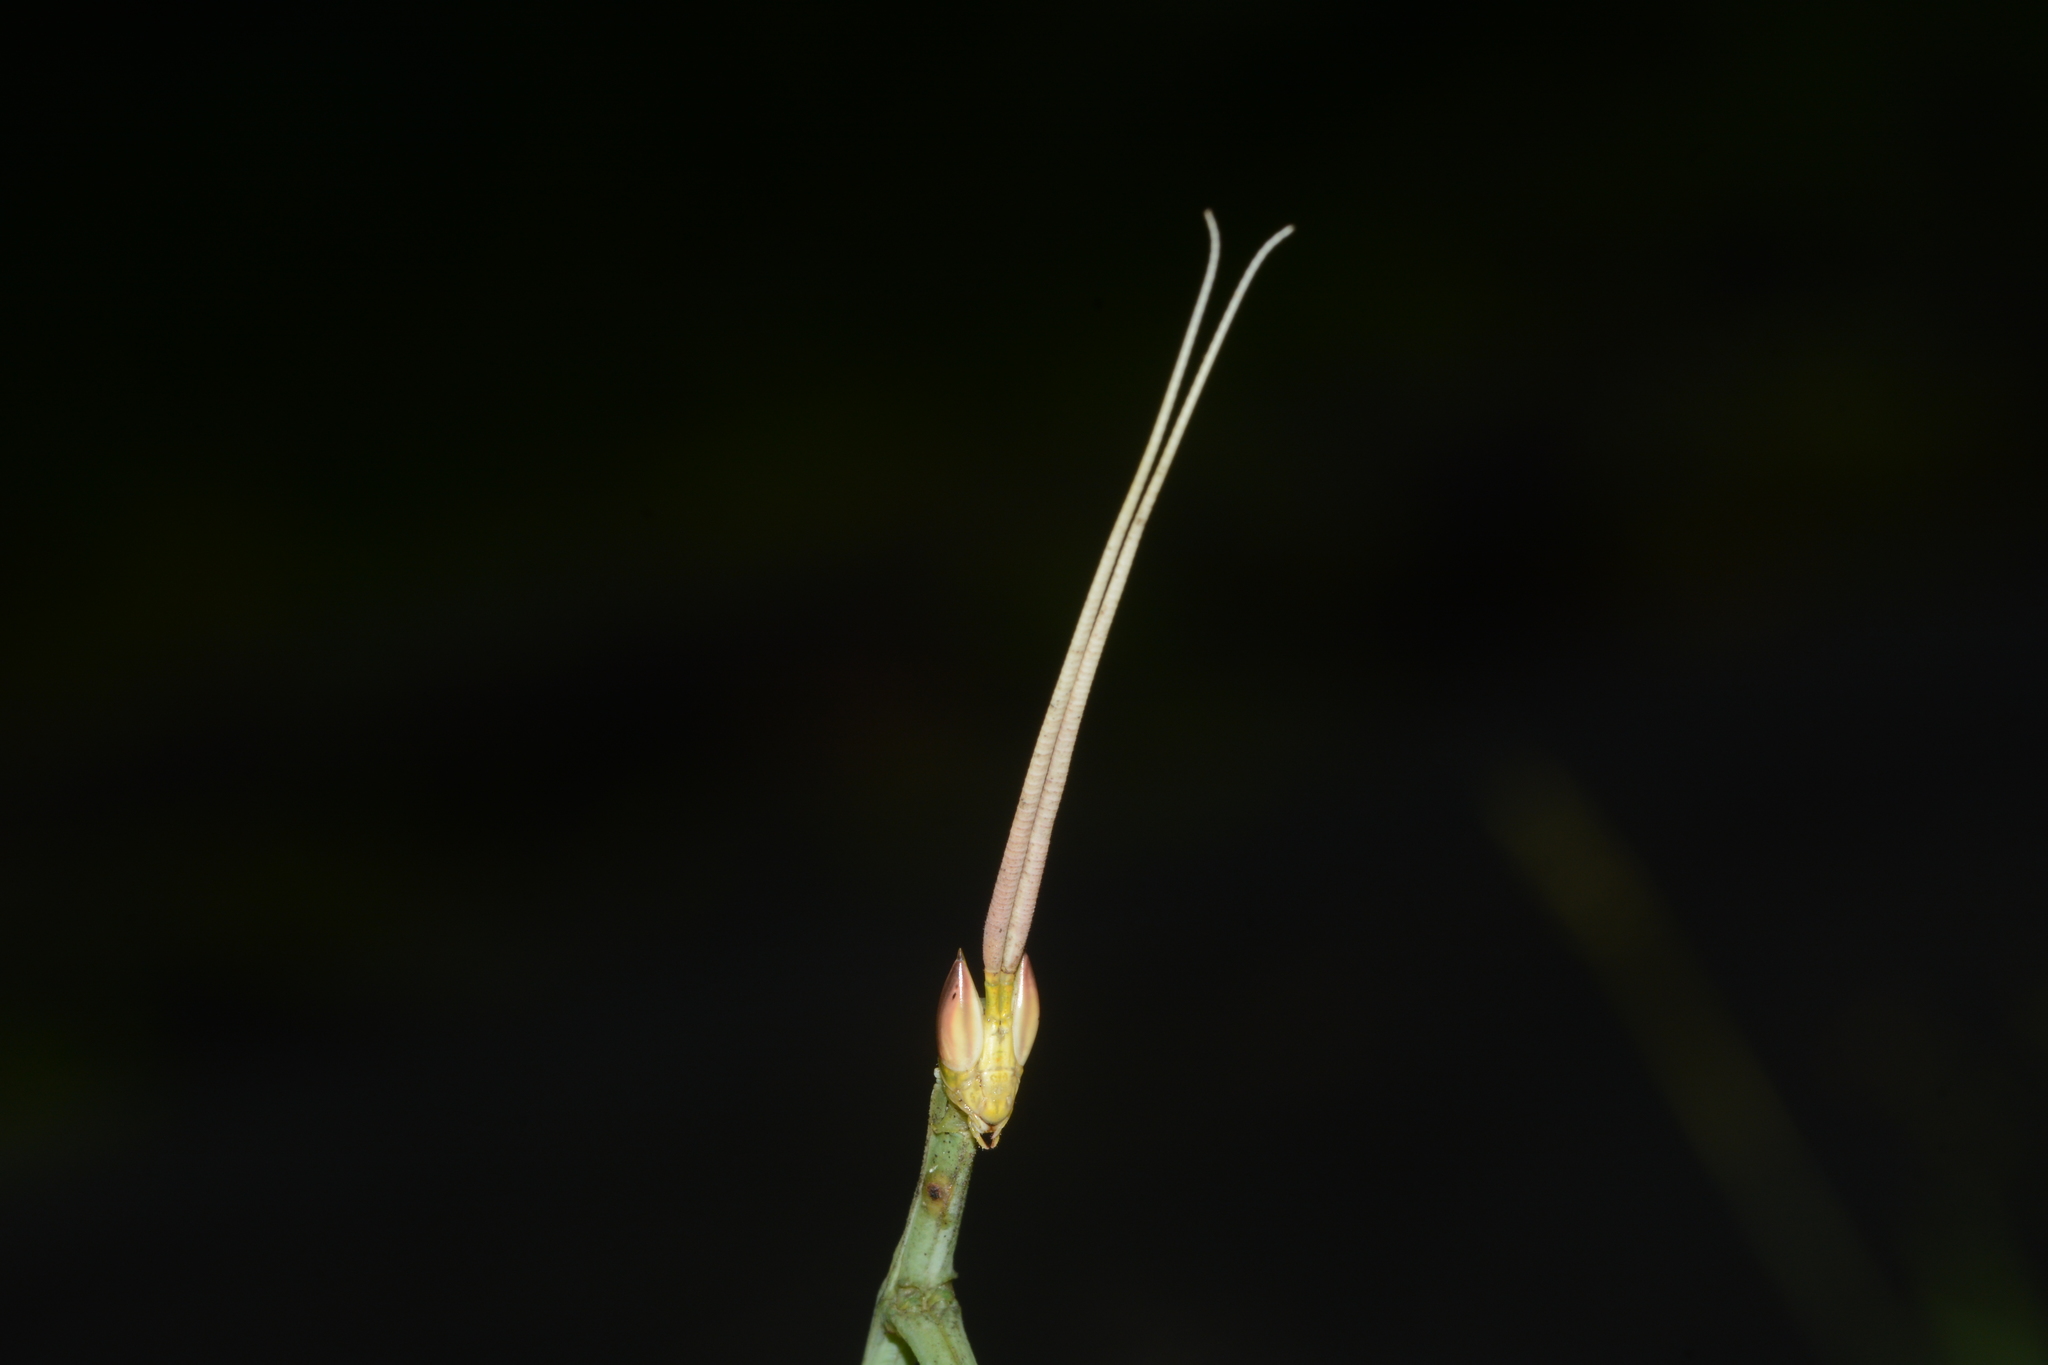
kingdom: Animalia
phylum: Arthropoda
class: Insecta
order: Mantodea
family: Eremiaphilidae
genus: Schizocephala
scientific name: Schizocephala bicornis
